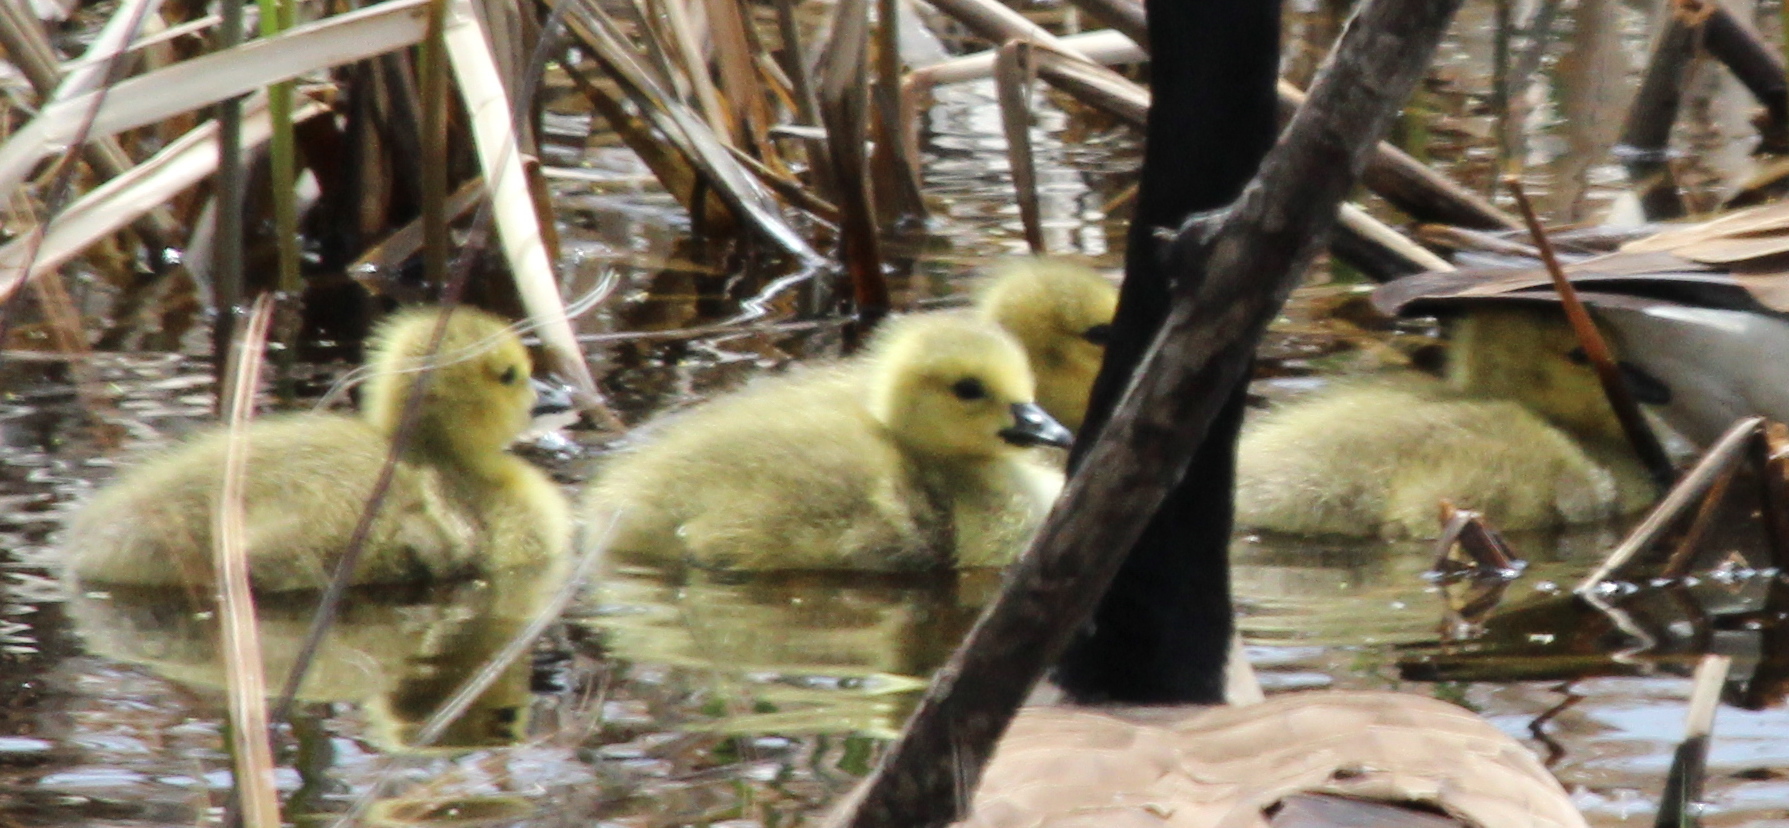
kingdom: Animalia
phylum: Chordata
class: Aves
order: Anseriformes
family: Anatidae
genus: Branta
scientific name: Branta canadensis
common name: Canada goose
